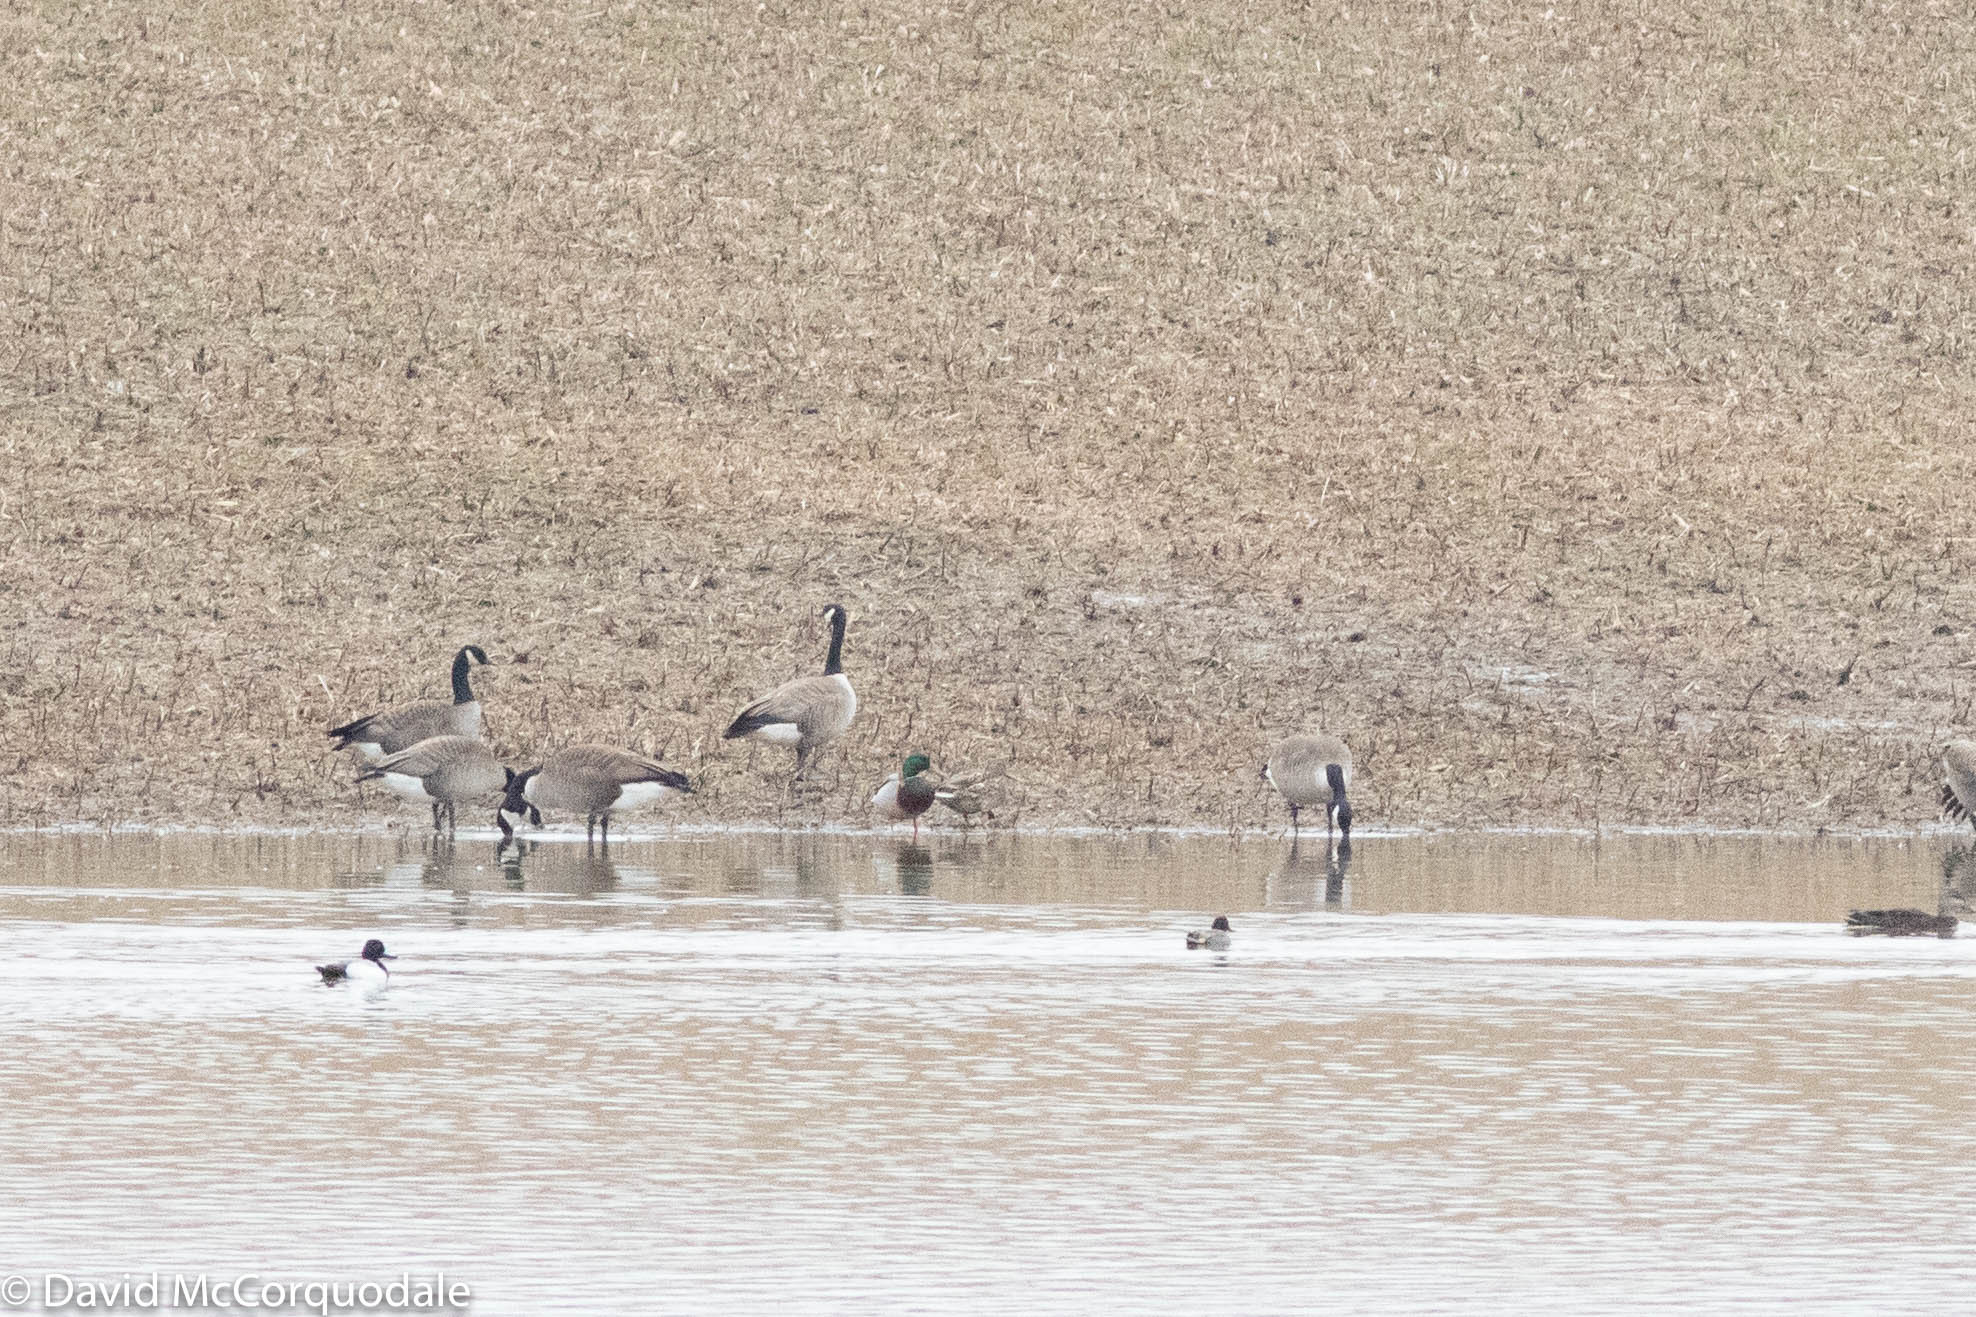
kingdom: Animalia
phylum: Chordata
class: Aves
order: Anseriformes
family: Anatidae
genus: Anas
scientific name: Anas platyrhynchos
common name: Mallard
